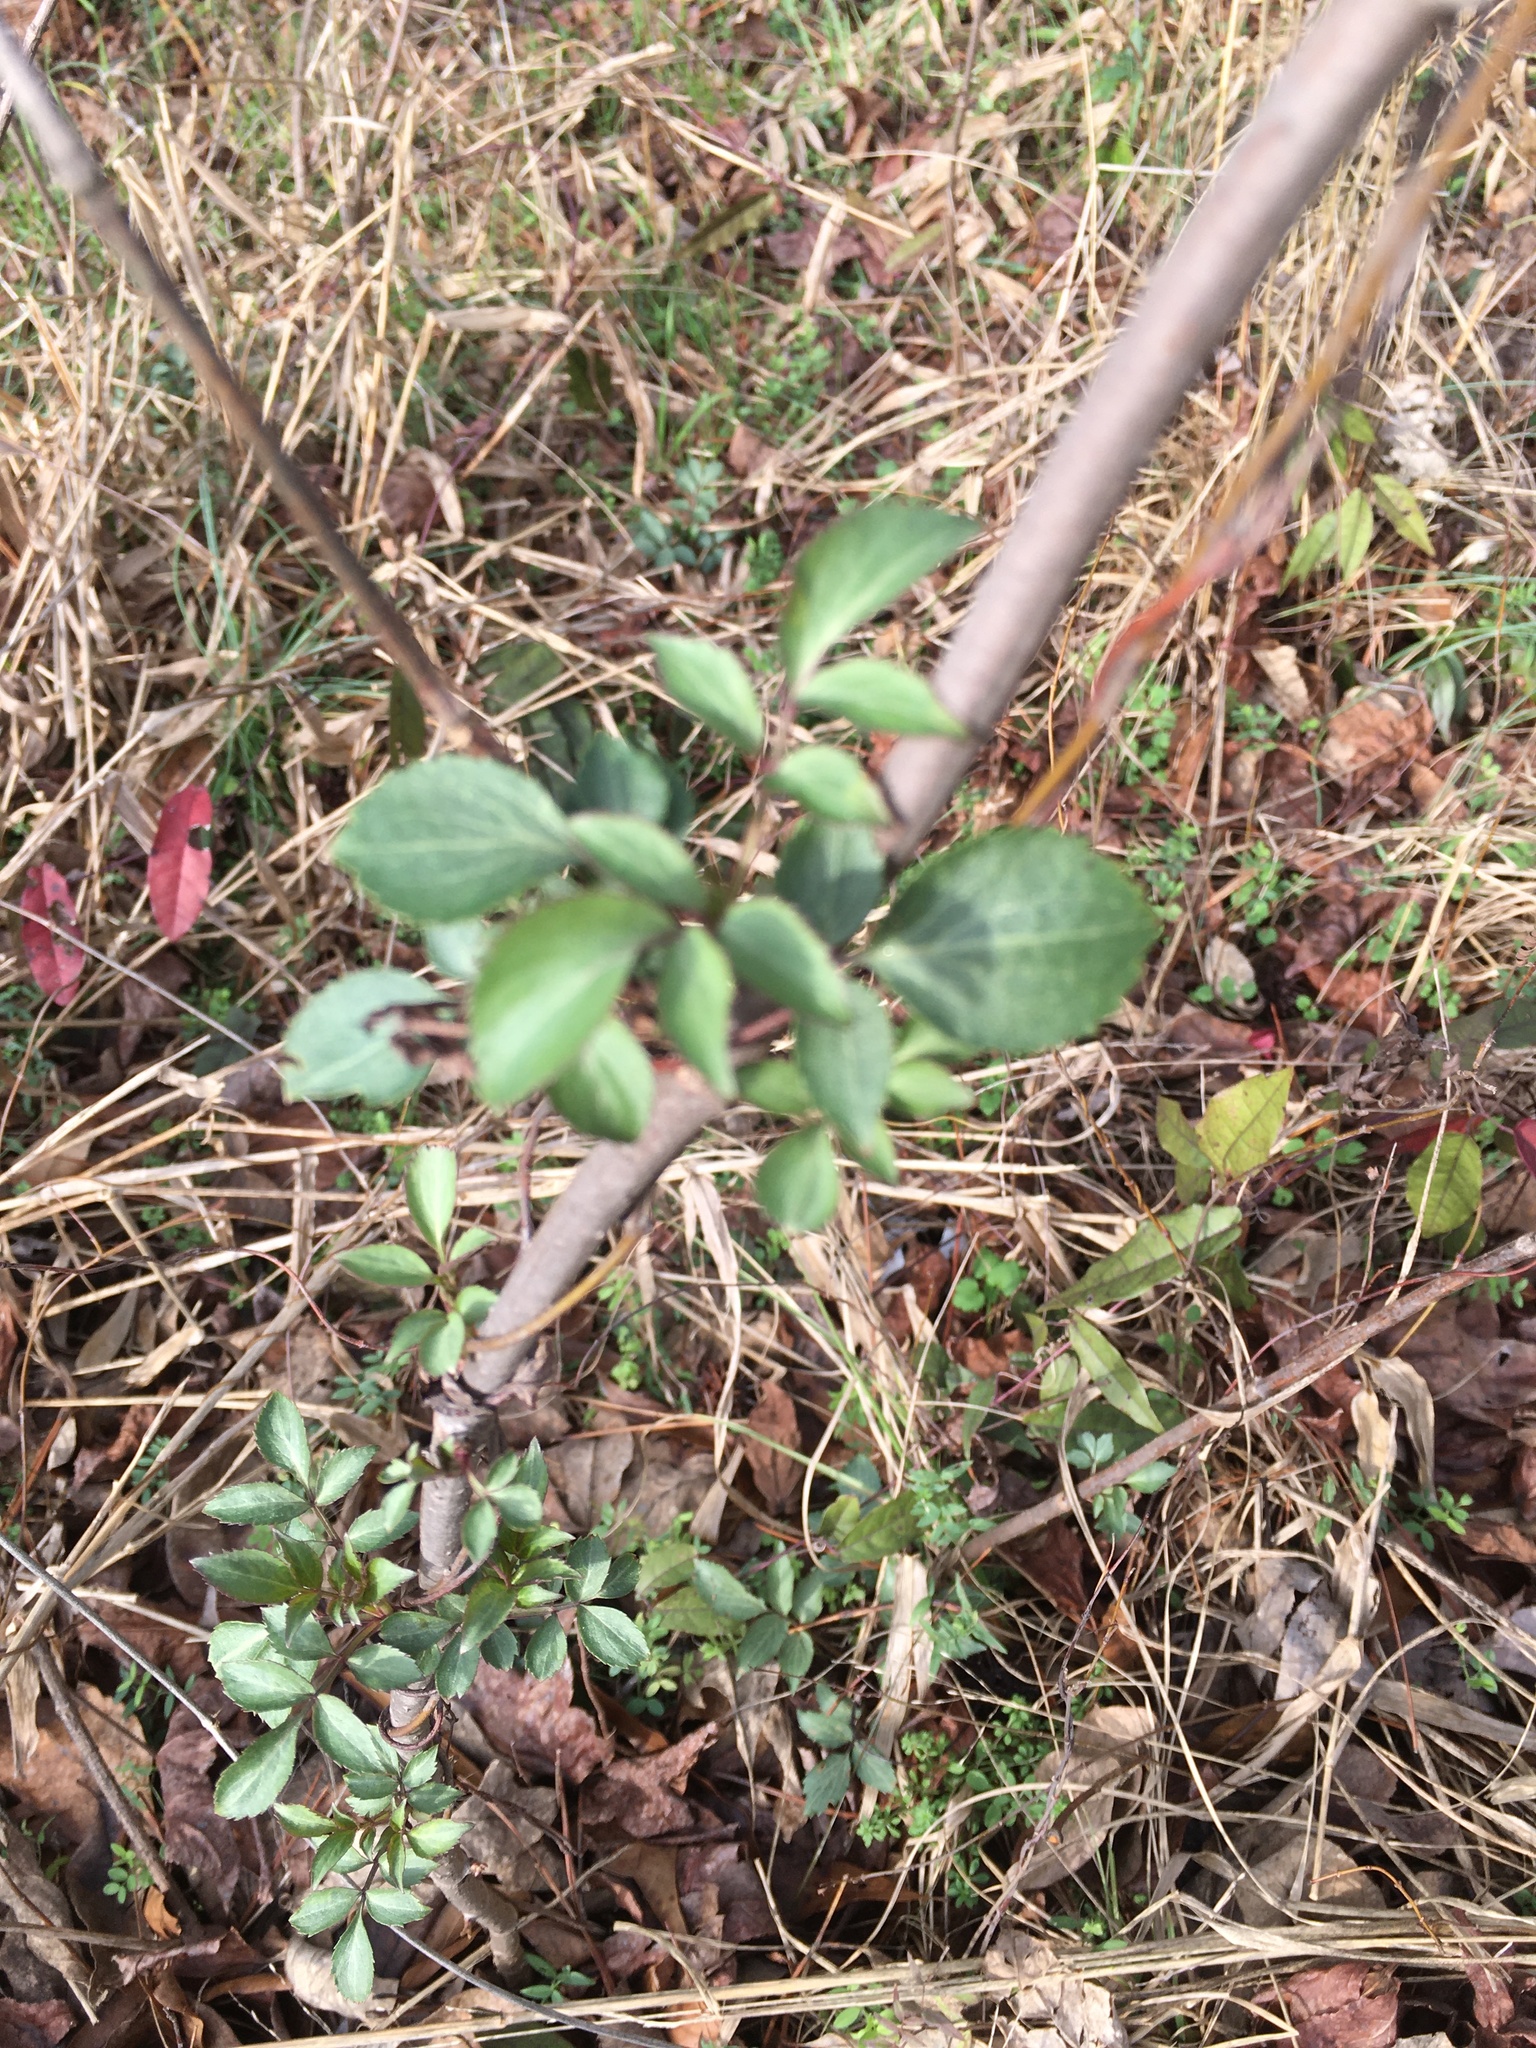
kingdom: Plantae
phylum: Tracheophyta
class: Magnoliopsida
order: Dipsacales
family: Viburnaceae
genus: Sambucus
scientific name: Sambucus canadensis
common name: American elder
